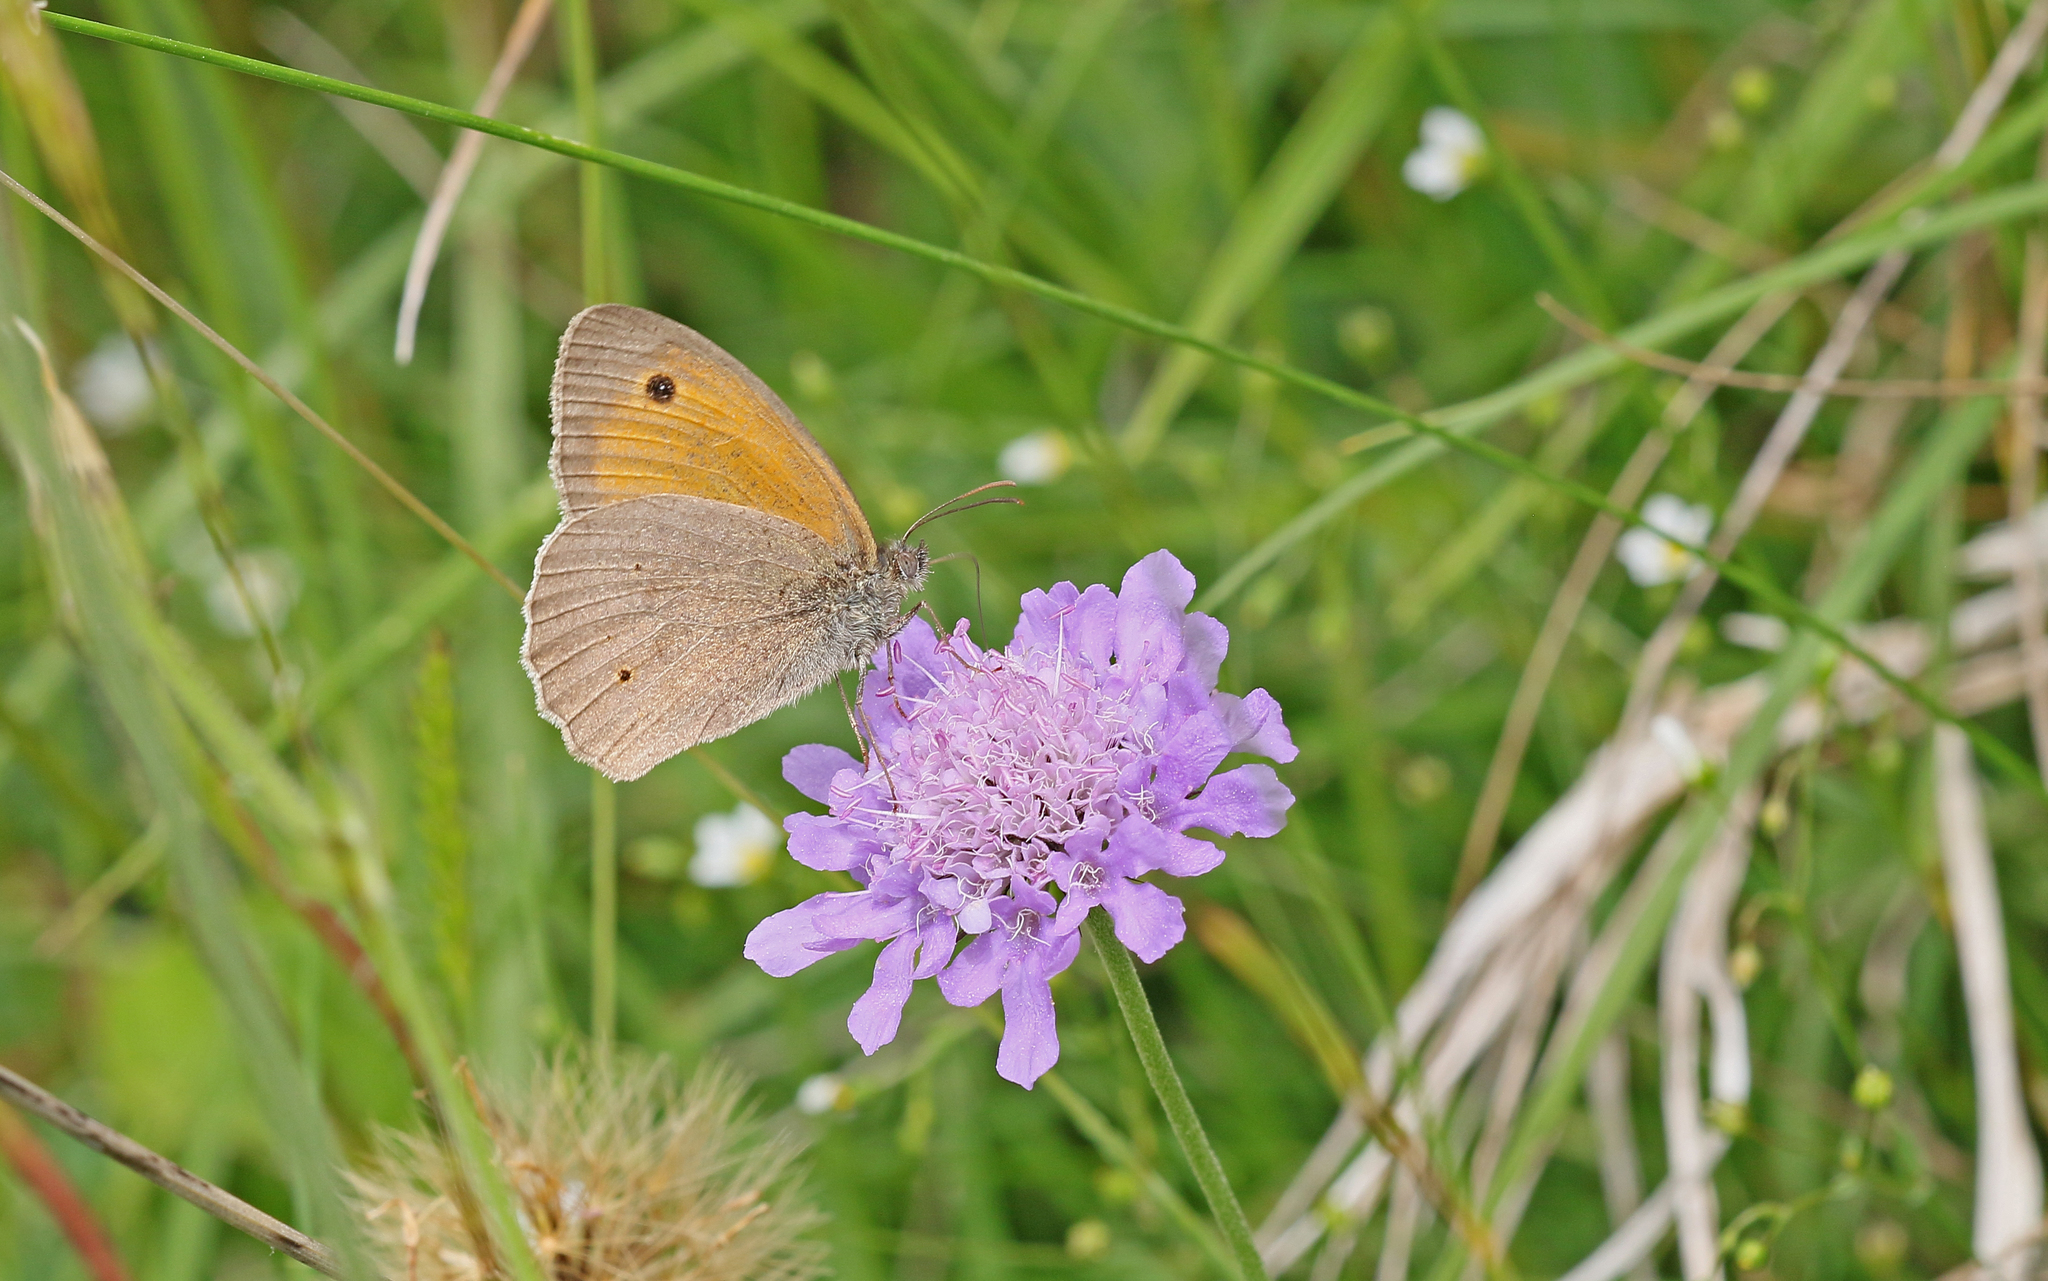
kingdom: Animalia
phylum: Arthropoda
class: Insecta
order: Lepidoptera
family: Nymphalidae
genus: Maniola
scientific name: Maniola jurtina
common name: Meadow brown
